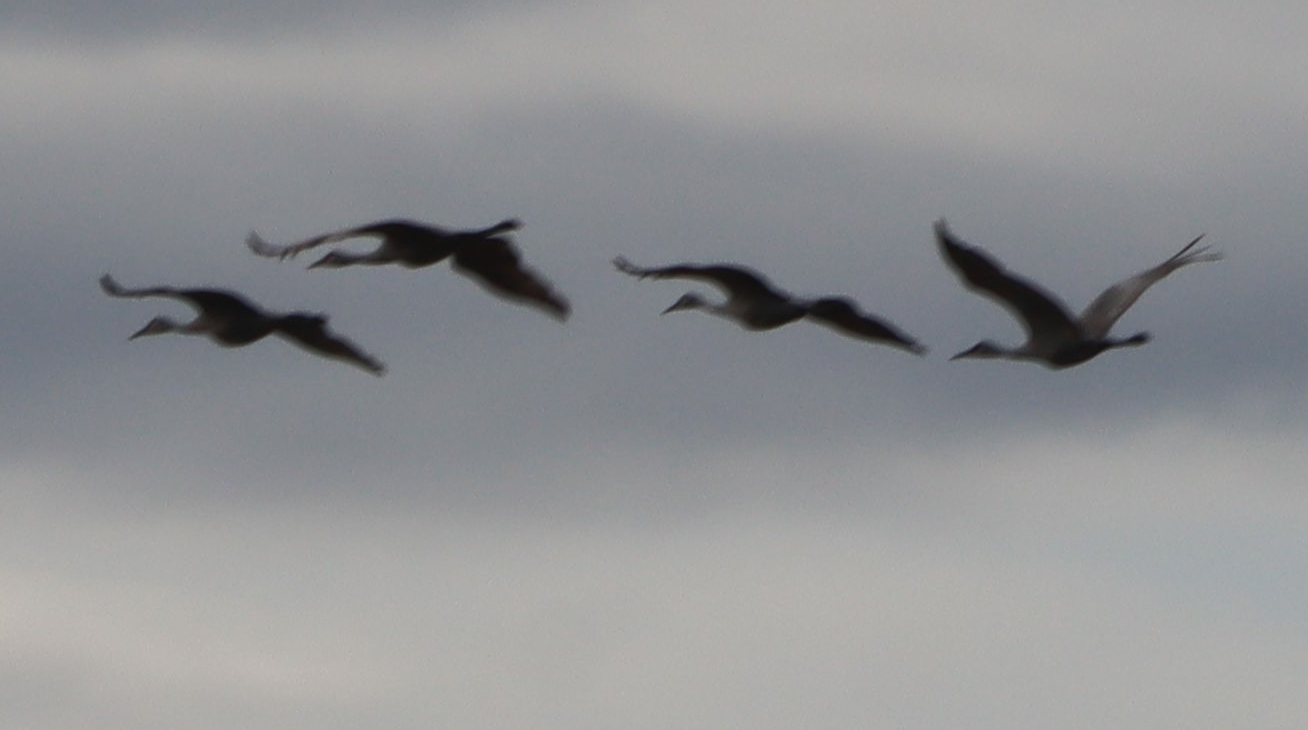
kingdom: Animalia
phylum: Chordata
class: Aves
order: Gruiformes
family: Gruidae
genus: Grus
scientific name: Grus canadensis
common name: Sandhill crane
